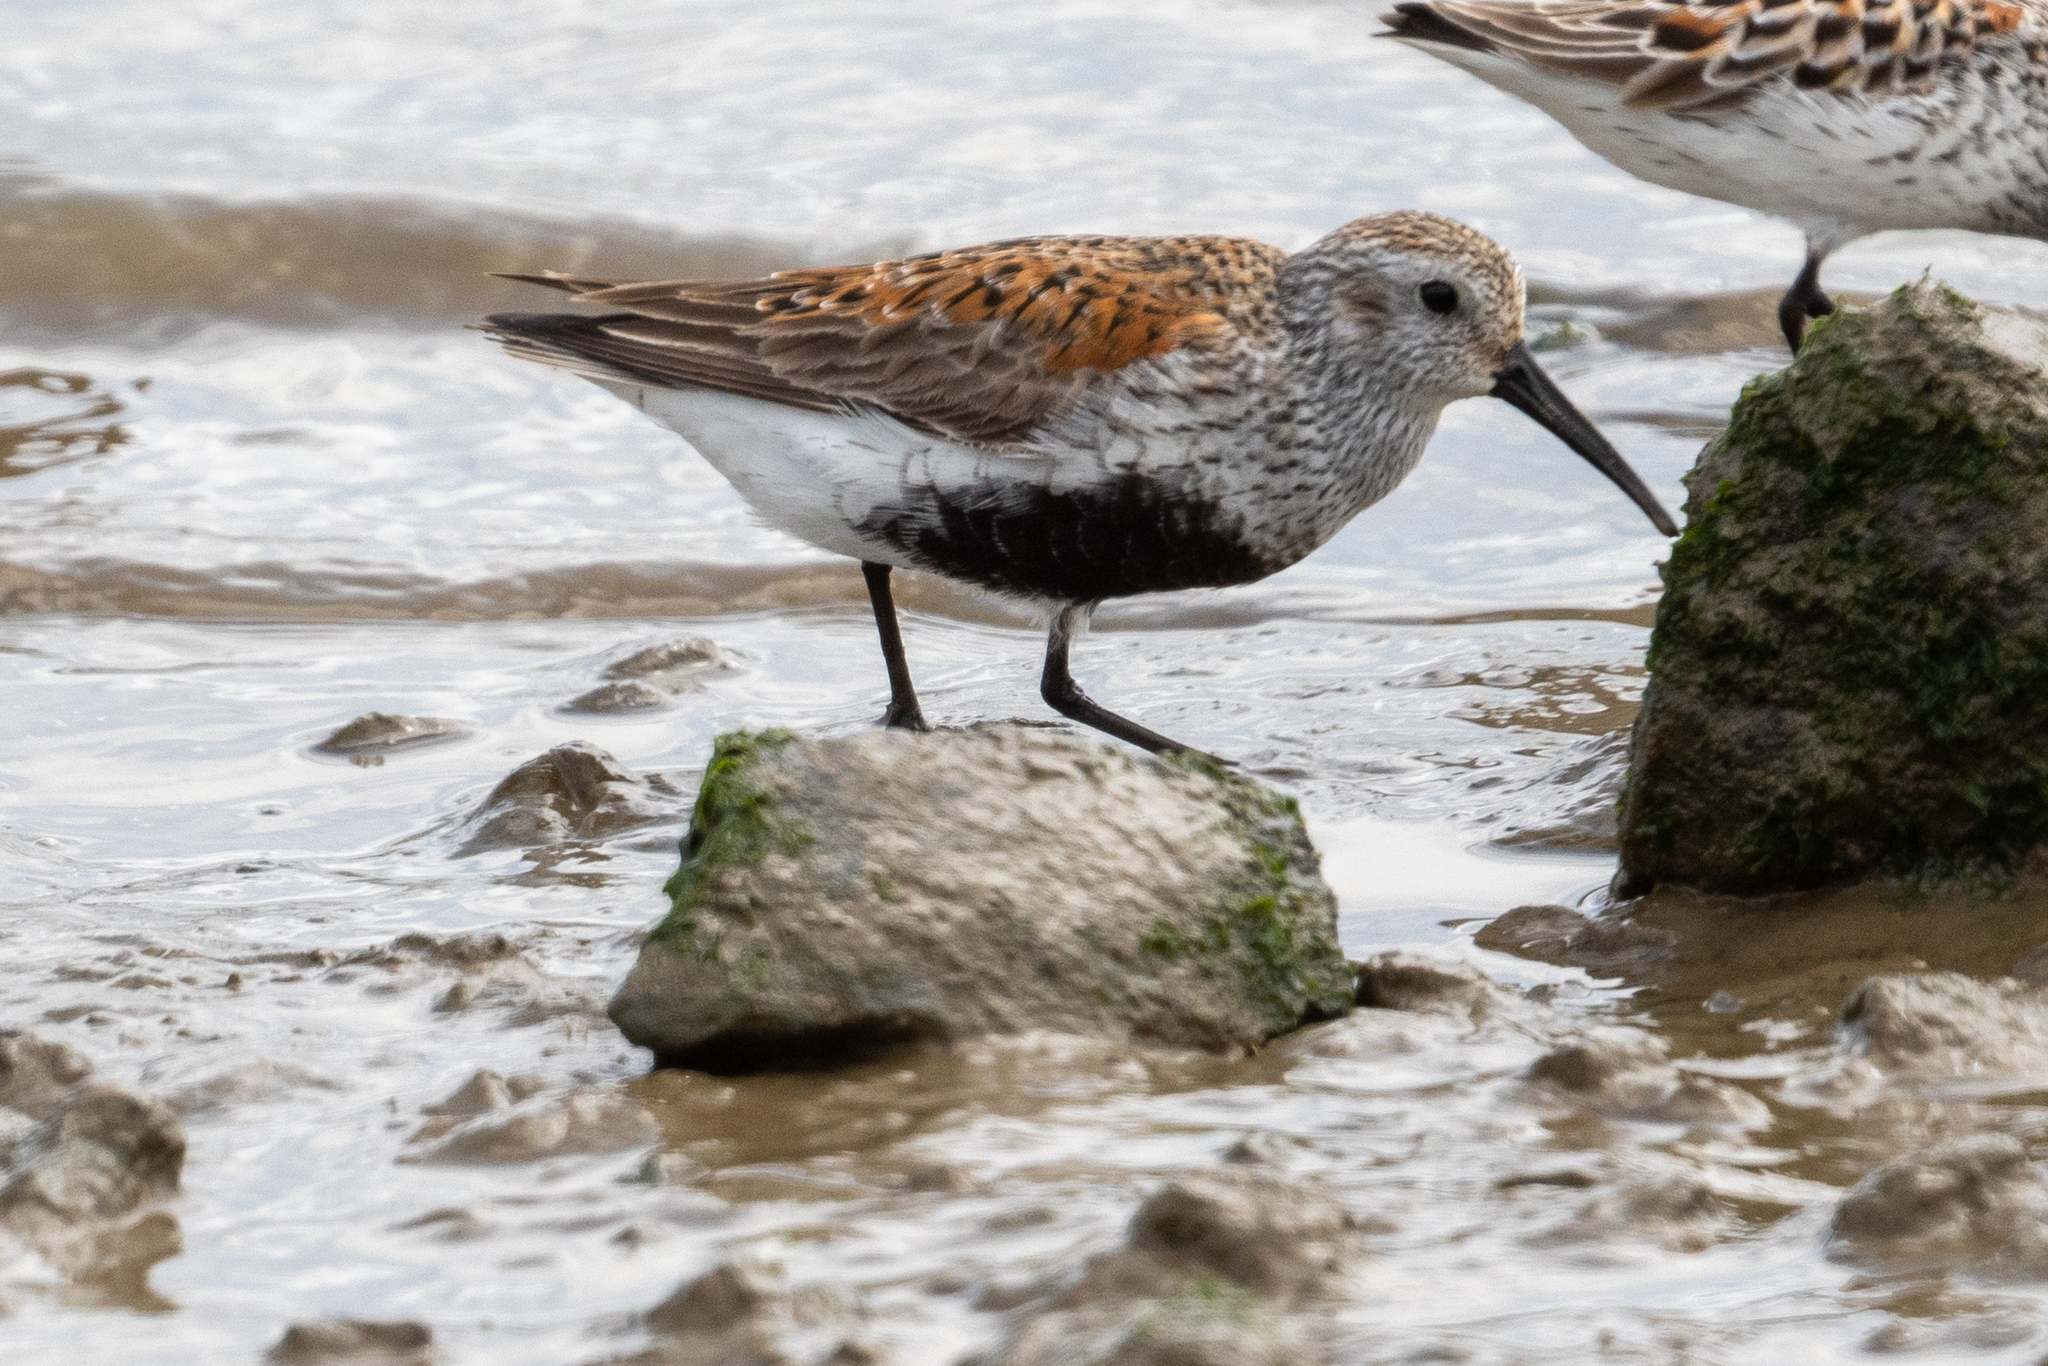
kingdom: Animalia
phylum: Chordata
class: Aves
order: Charadriiformes
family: Scolopacidae
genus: Calidris
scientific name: Calidris alpina
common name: Dunlin
